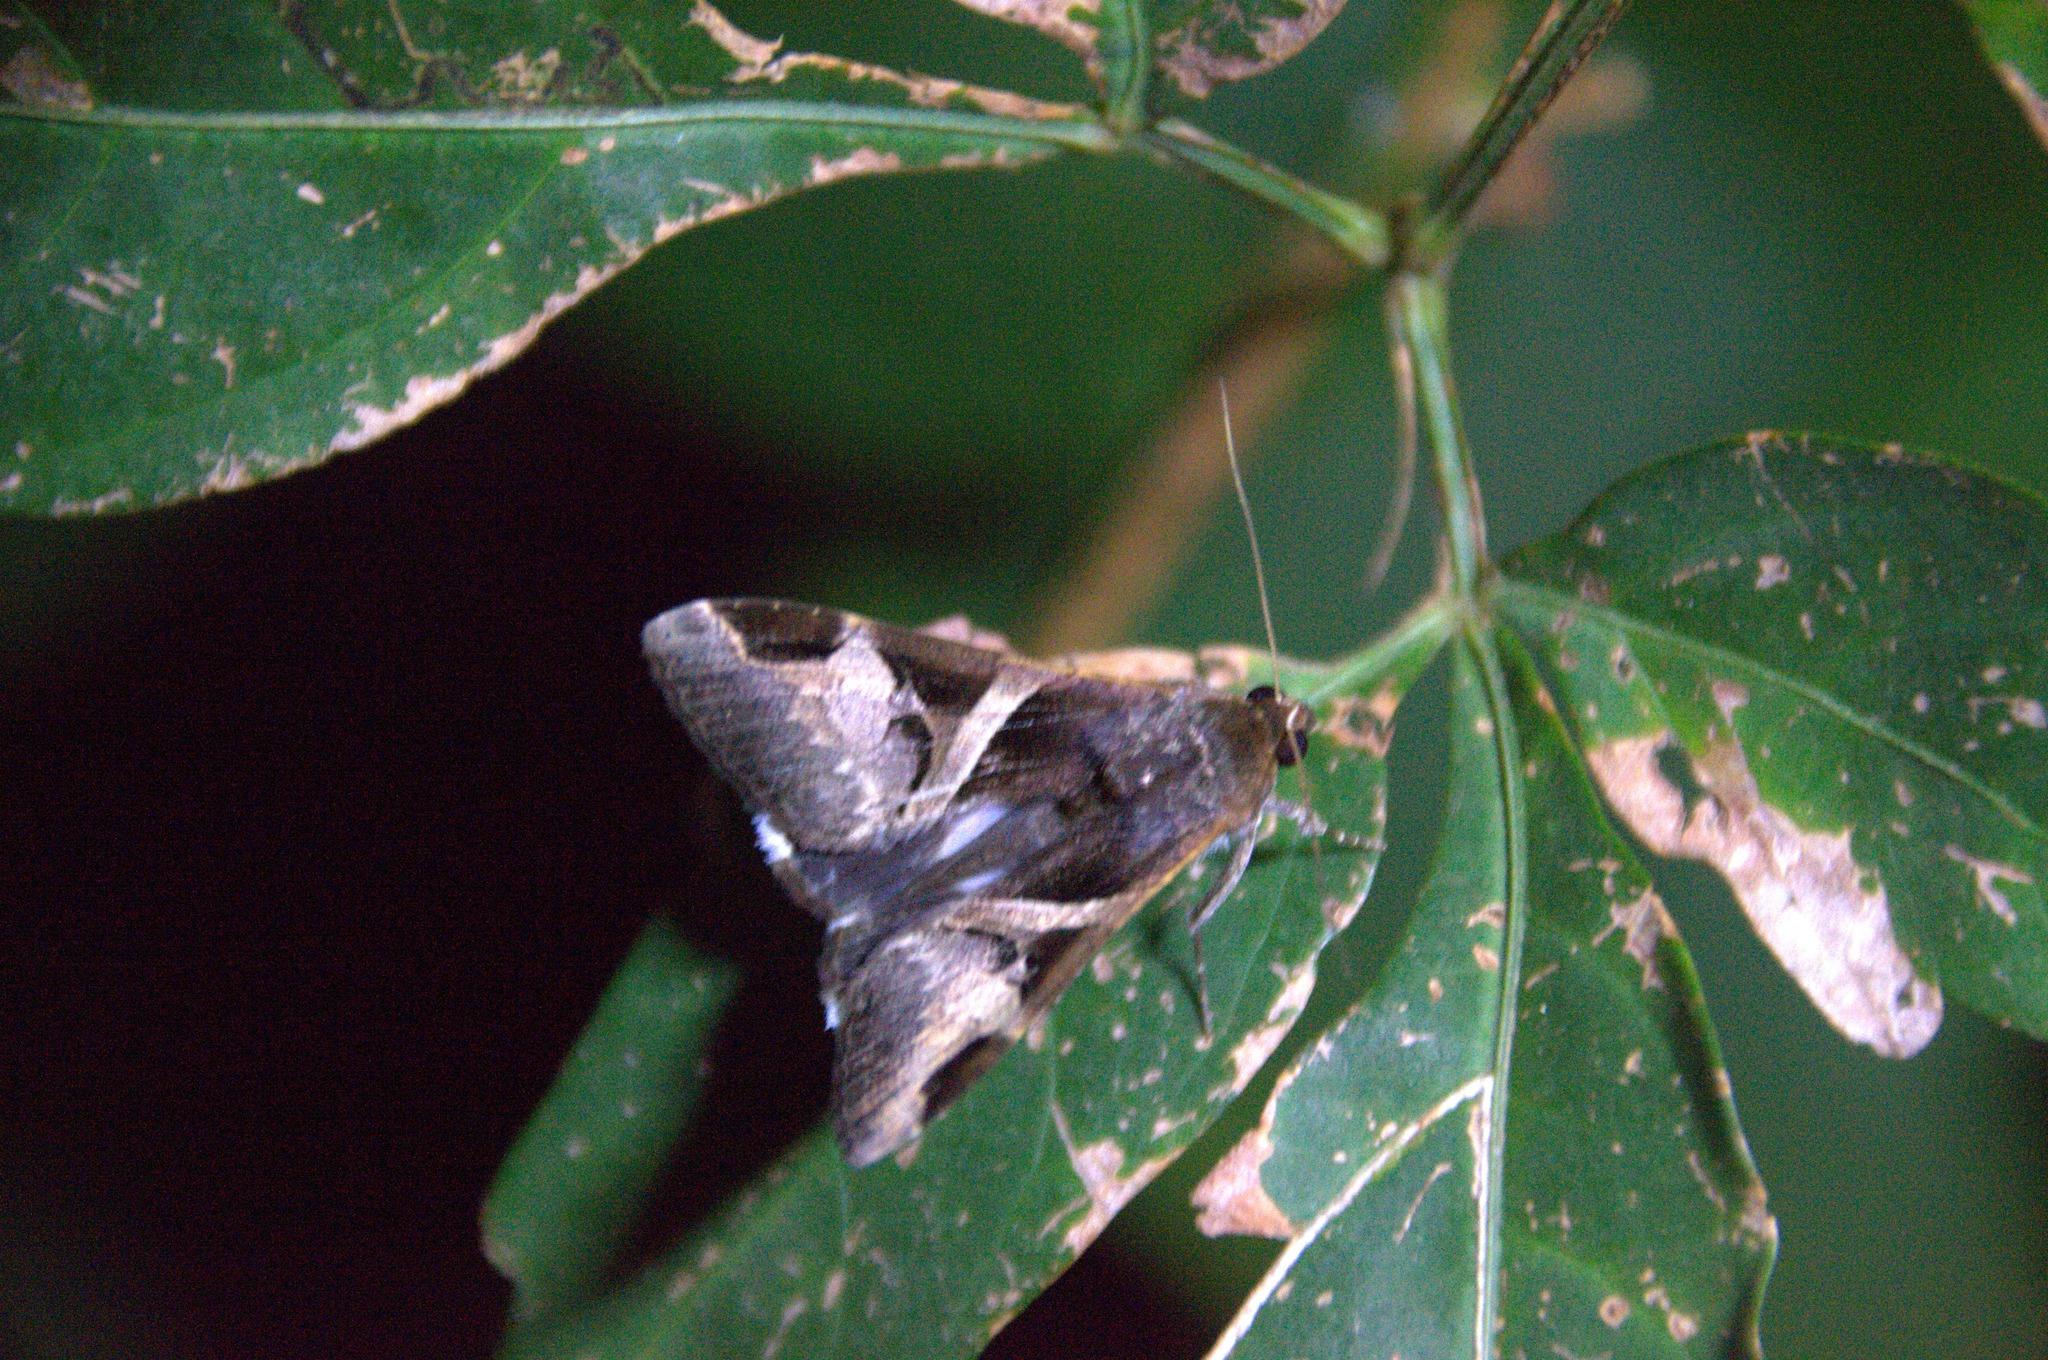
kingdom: Animalia
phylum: Arthropoda
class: Insecta
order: Lepidoptera
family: Erebidae
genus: Melipotis
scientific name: Melipotis fasciolaris
